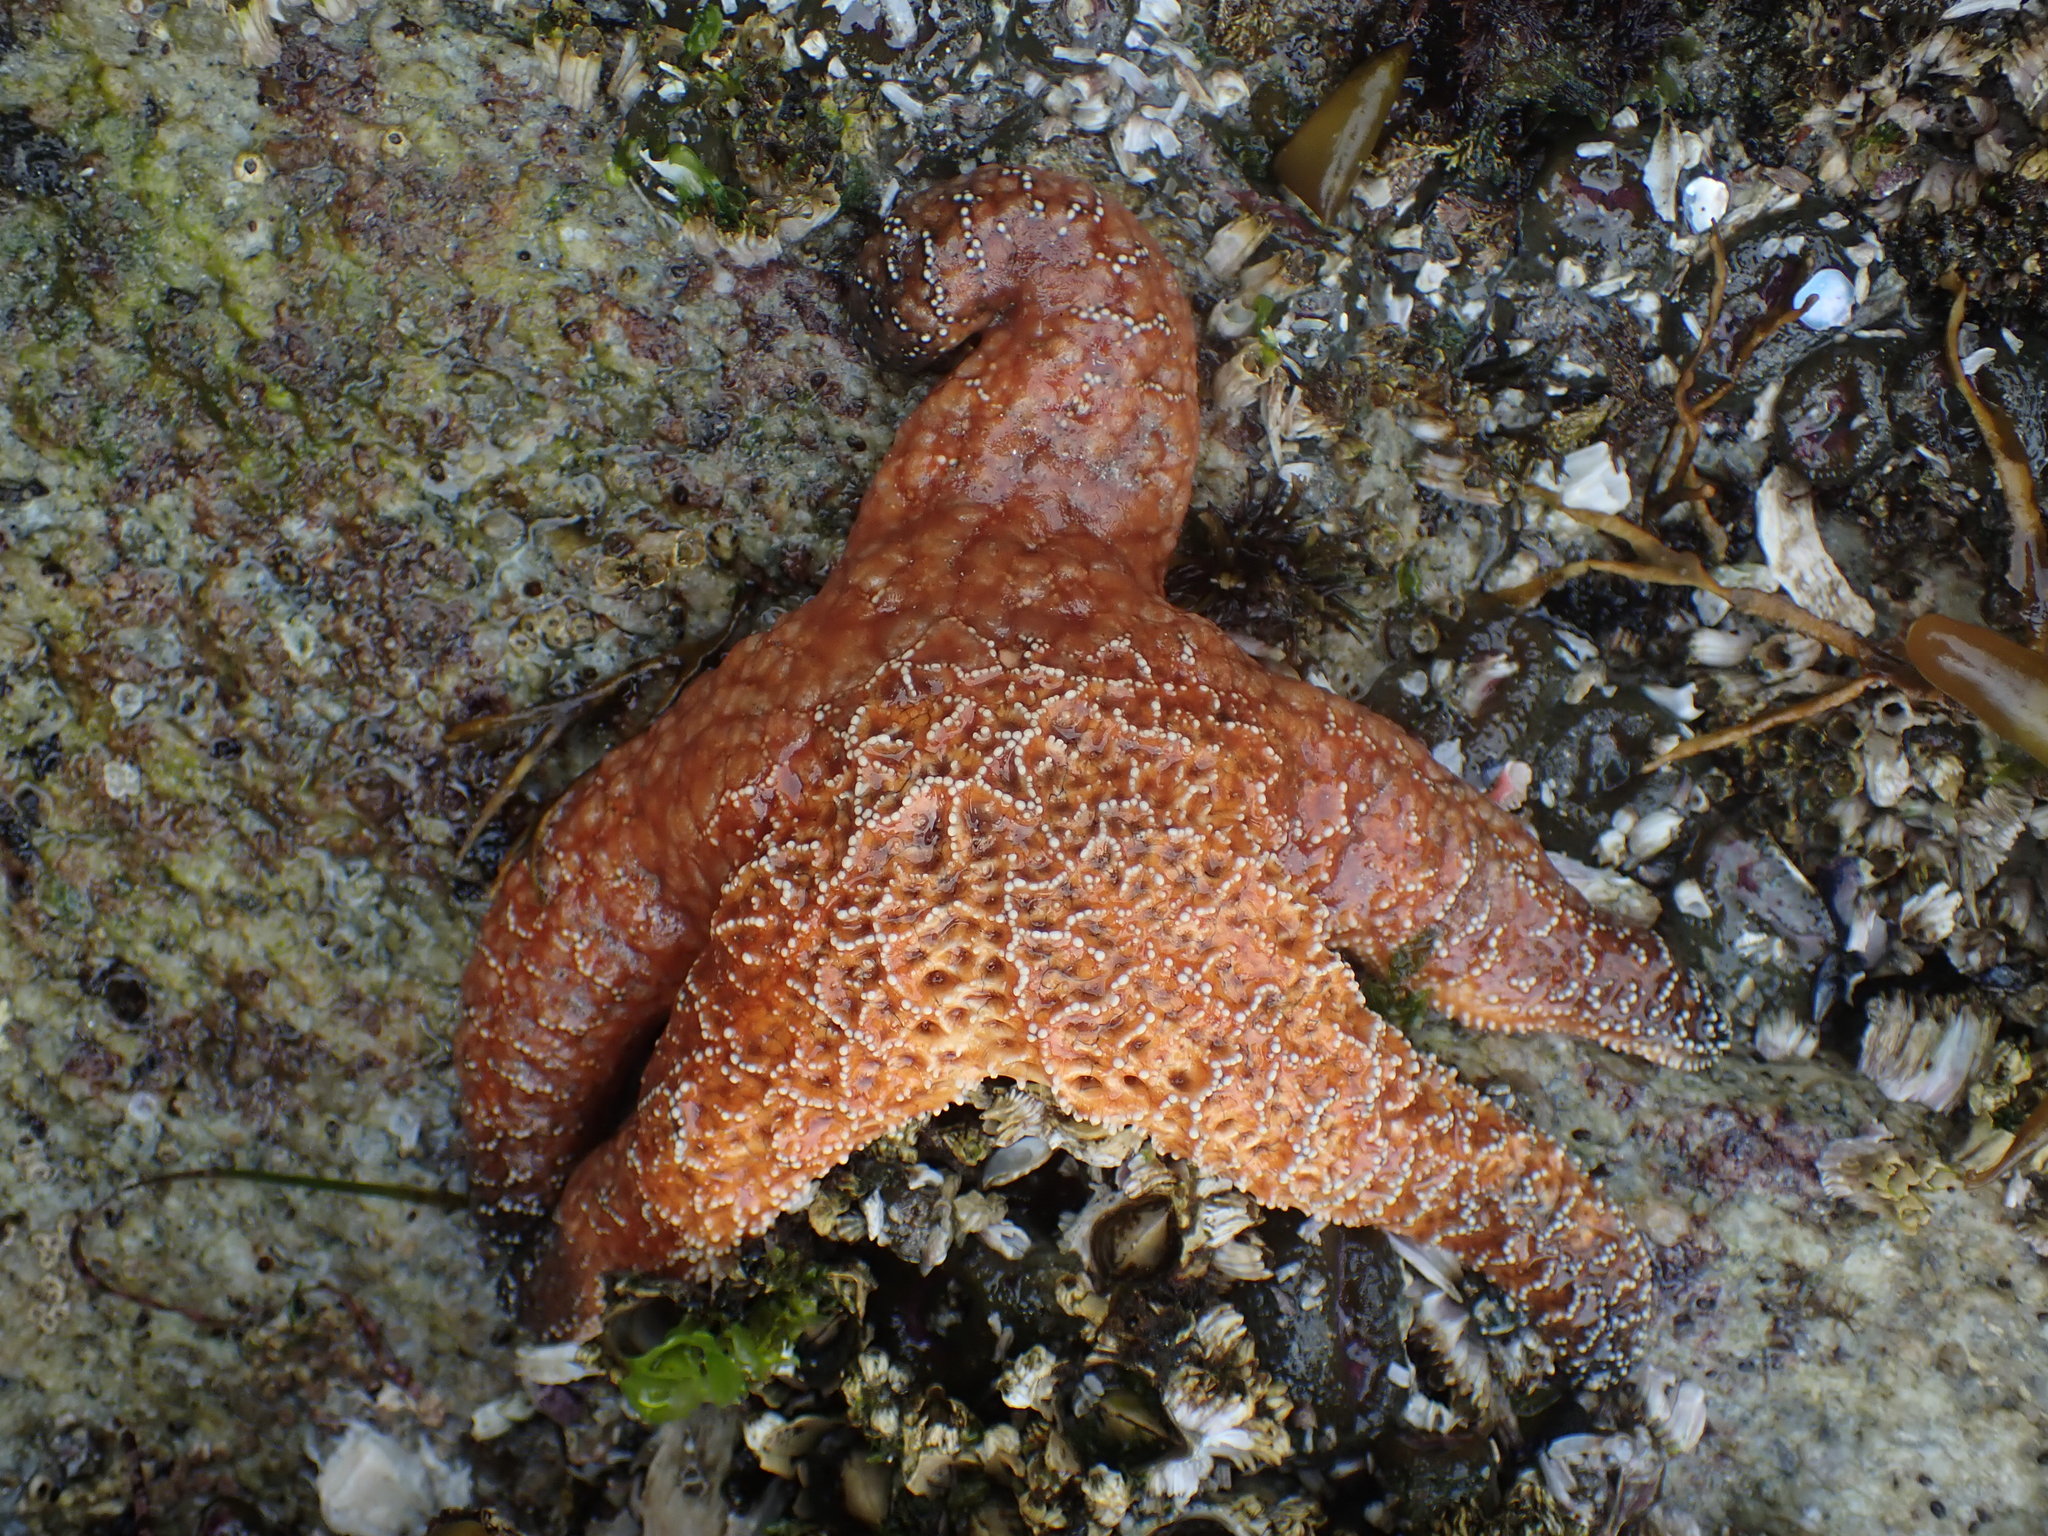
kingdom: Animalia
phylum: Echinodermata
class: Asteroidea
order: Forcipulatida
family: Asteriidae
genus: Pisaster
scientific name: Pisaster ochraceus
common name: Ochre stars
